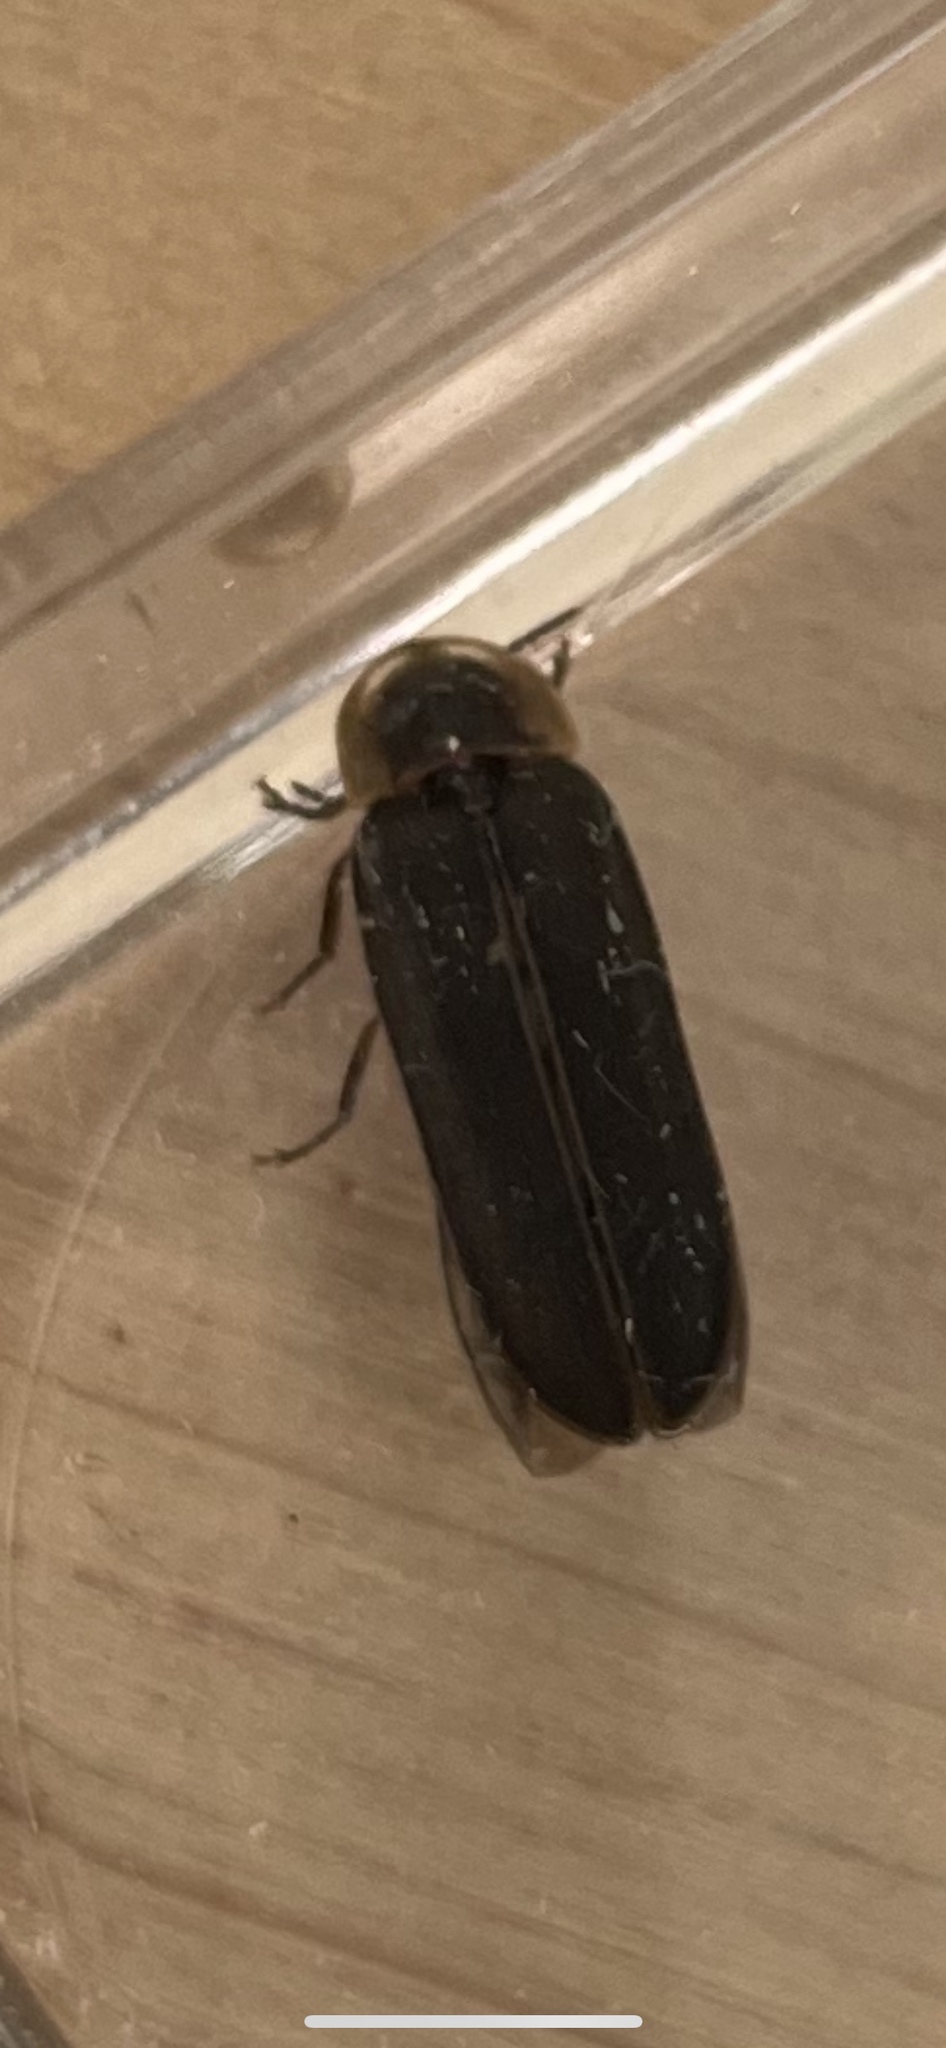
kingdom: Animalia
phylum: Arthropoda
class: Insecta
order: Coleoptera
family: Lampyridae
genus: Lampyris
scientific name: Lampyris noctiluca
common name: Glow-worm
